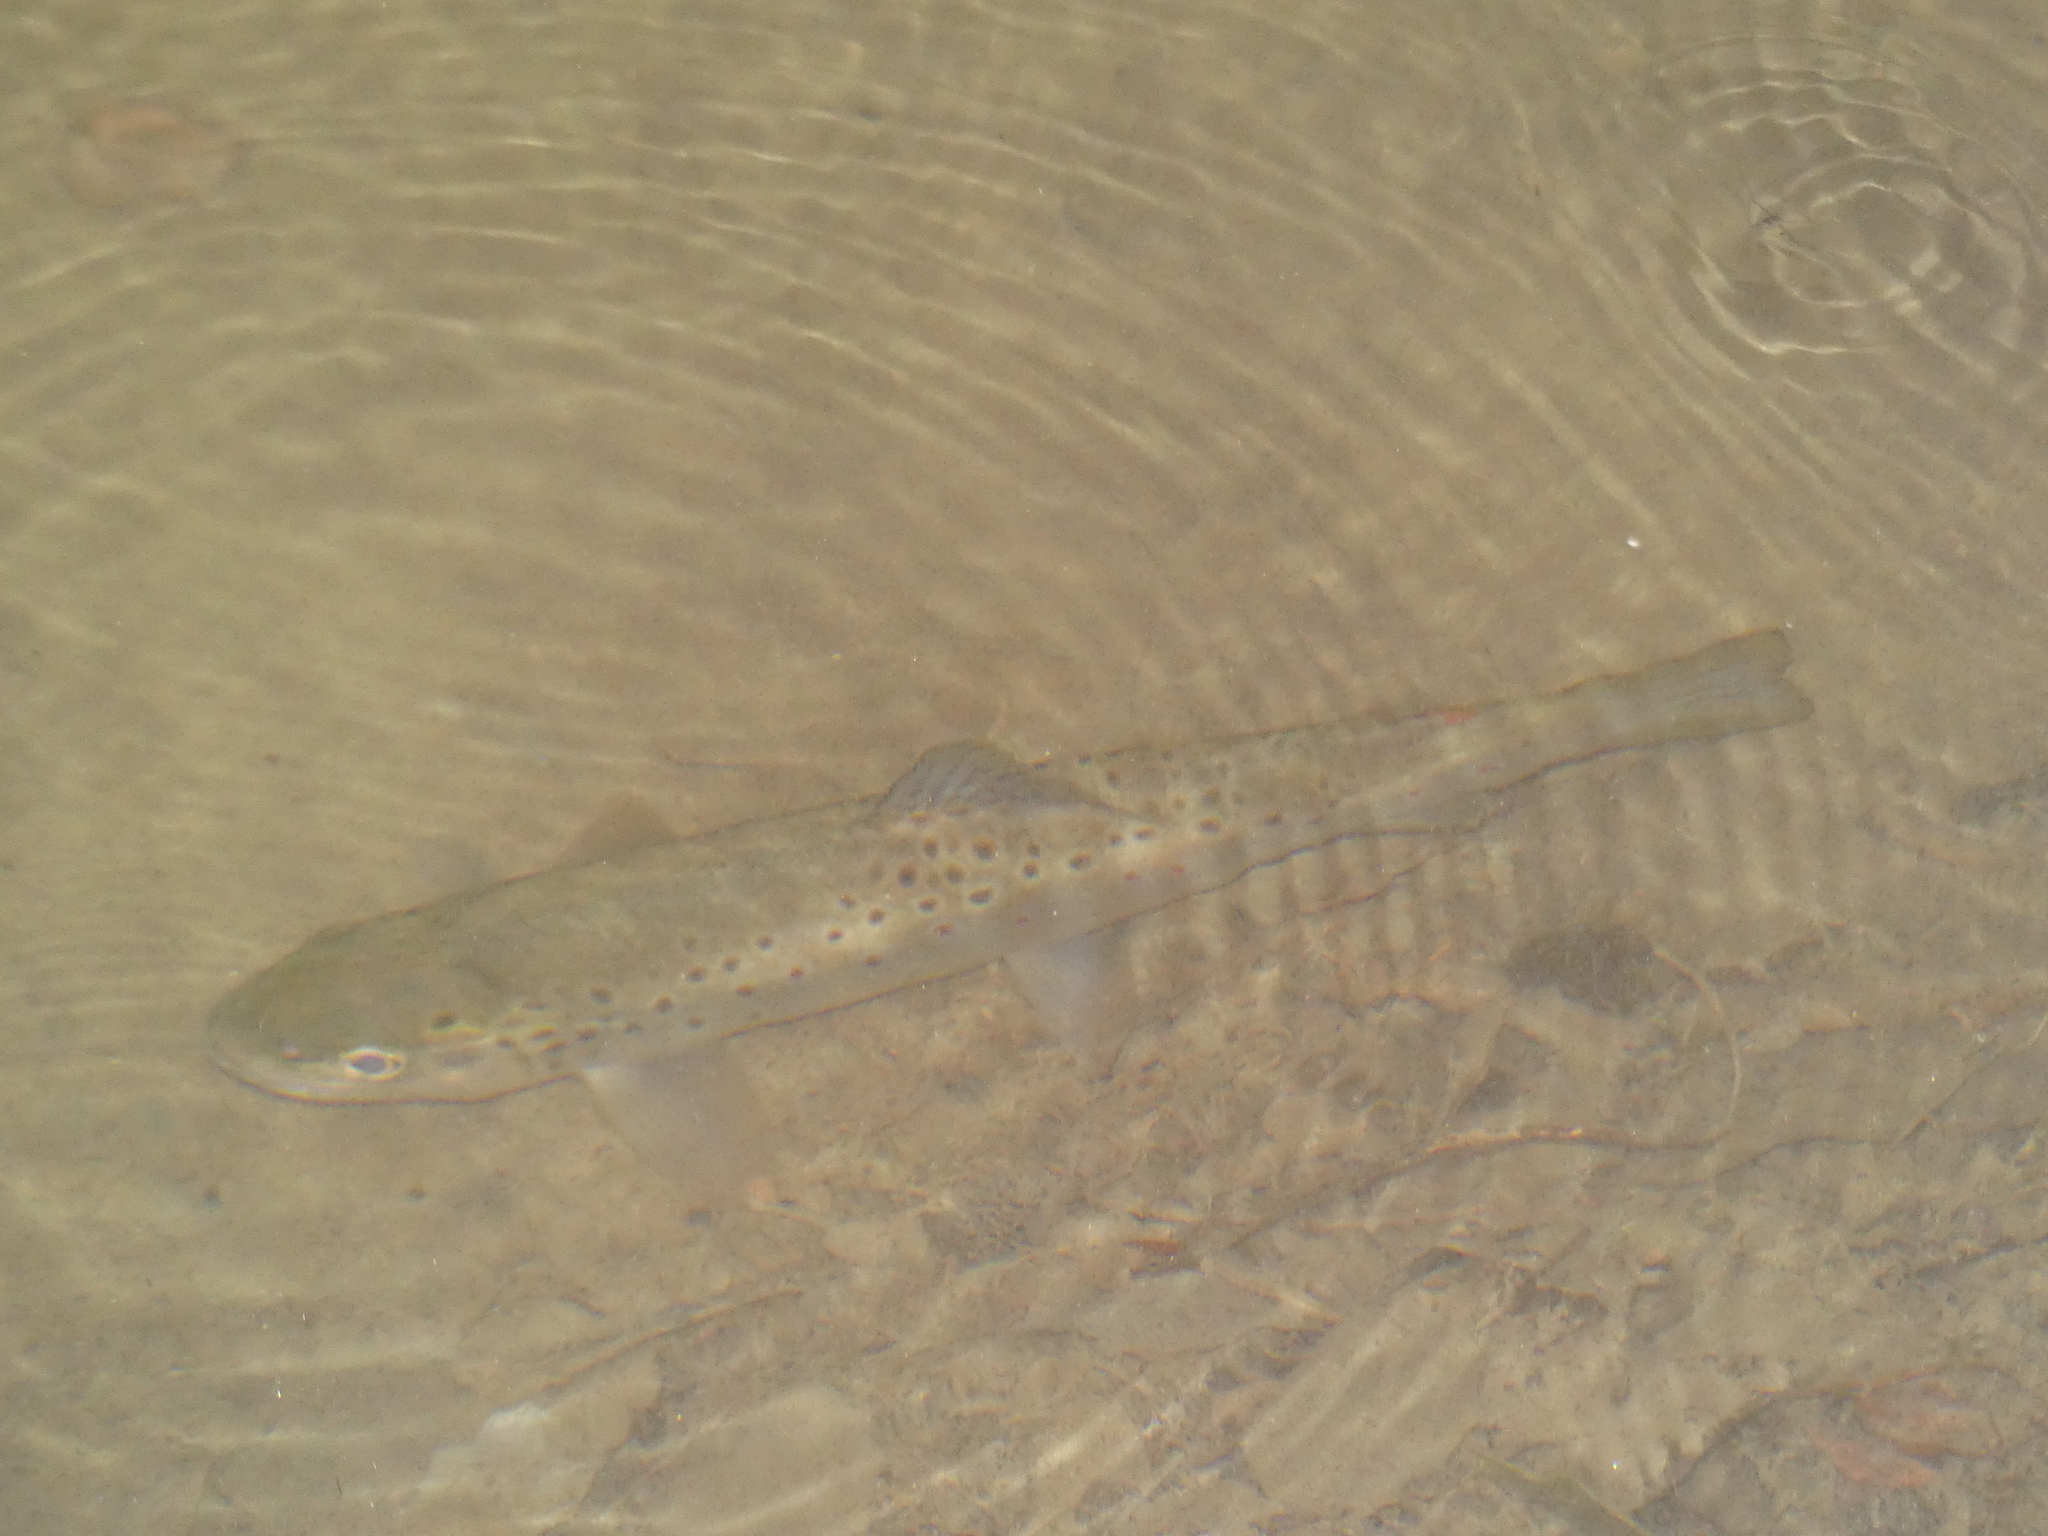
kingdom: Animalia
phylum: Chordata
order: Salmoniformes
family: Salmonidae
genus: Salmo
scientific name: Salmo trutta
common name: Brown trout
